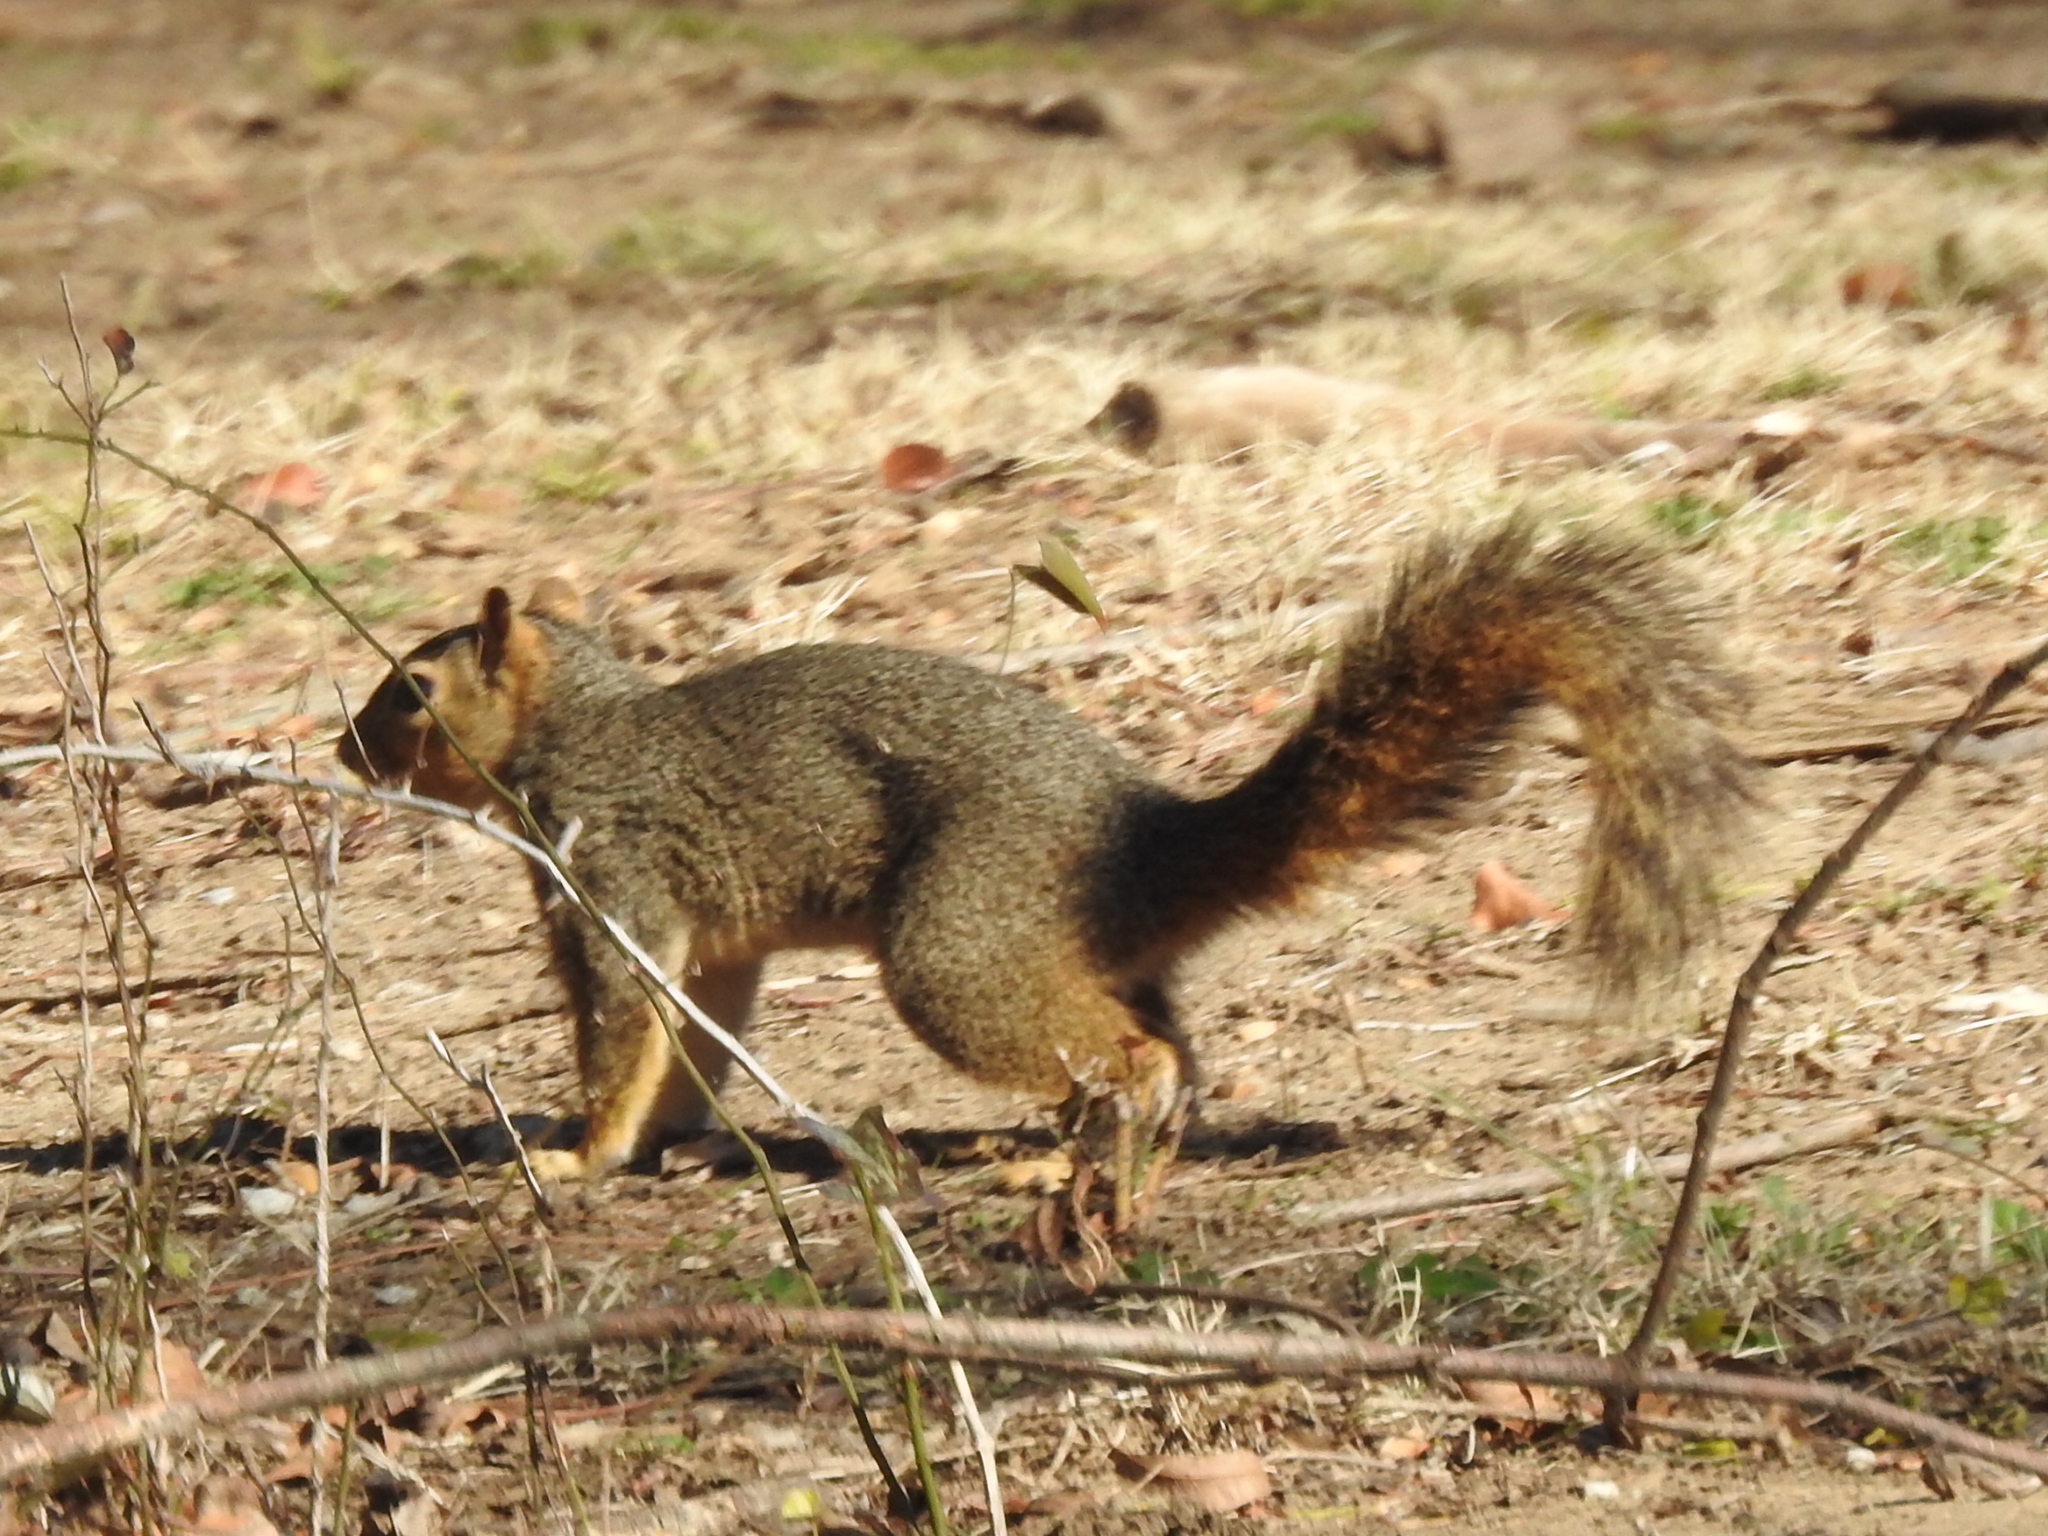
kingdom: Animalia
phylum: Chordata
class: Mammalia
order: Rodentia
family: Sciuridae
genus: Sciurus
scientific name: Sciurus niger
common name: Fox squirrel
